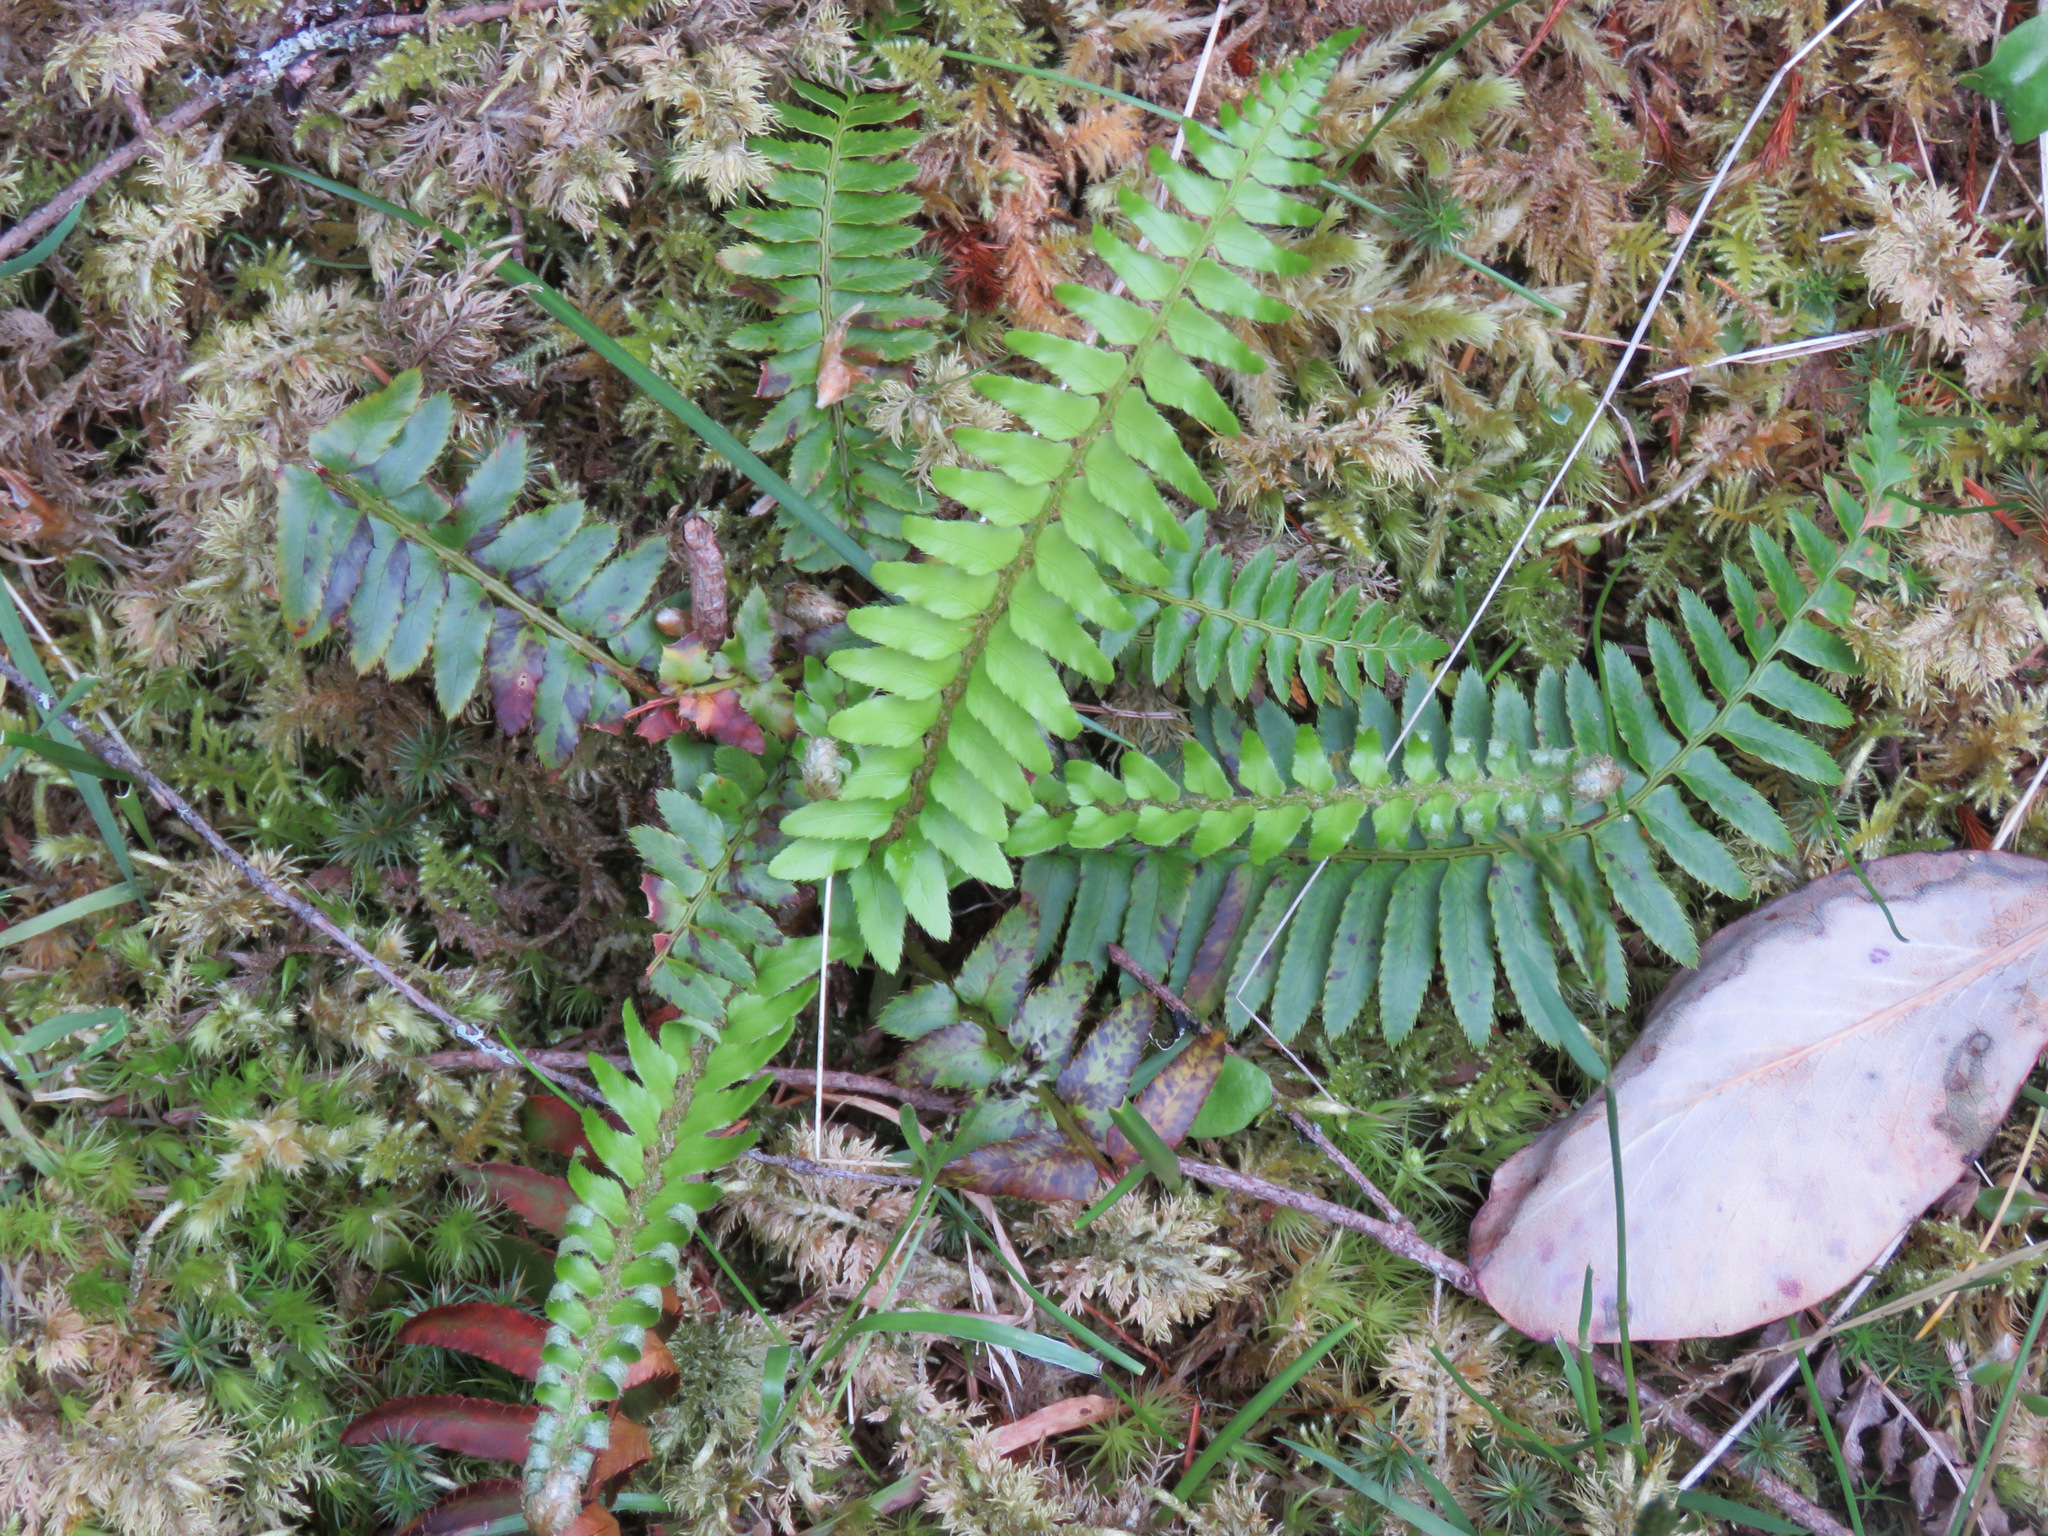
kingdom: Plantae
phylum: Tracheophyta
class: Polypodiopsida
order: Polypodiales
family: Dryopteridaceae
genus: Polystichum
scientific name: Polystichum munitum
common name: Western sword-fern
